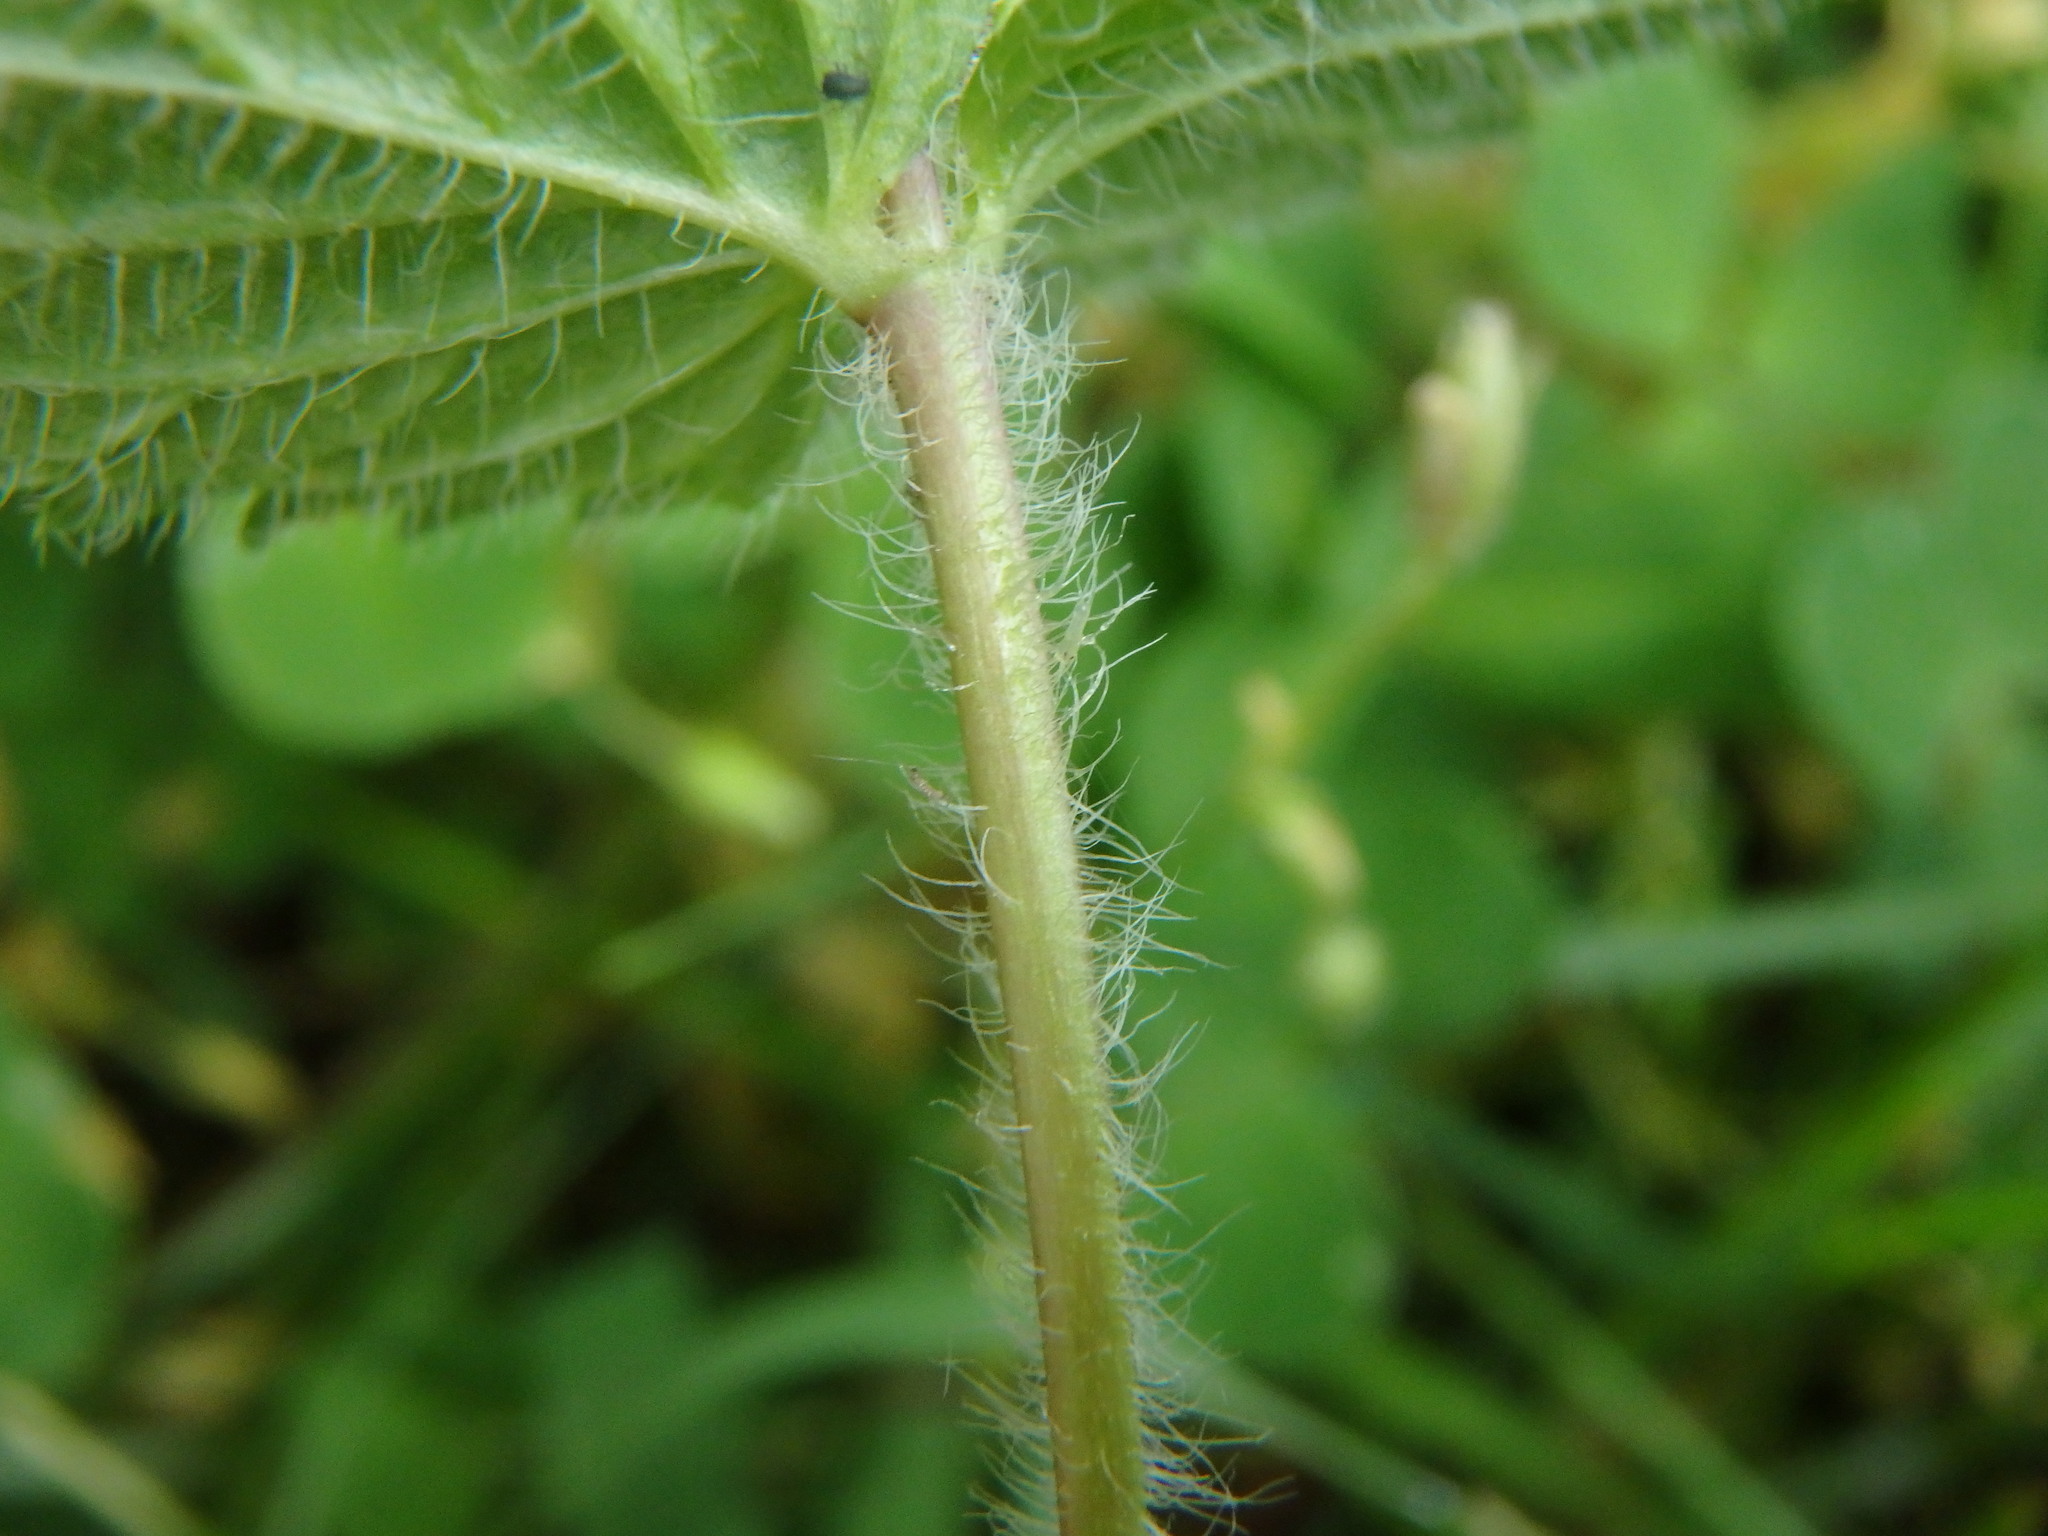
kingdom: Plantae
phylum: Tracheophyta
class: Magnoliopsida
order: Lamiales
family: Plantaginaceae
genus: Veronica
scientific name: Veronica chamaedrys
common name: Germander speedwell
